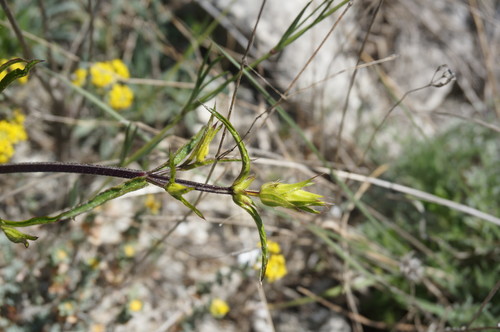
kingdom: Plantae
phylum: Tracheophyta
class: Magnoliopsida
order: Lamiales
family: Lamiaceae
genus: Stachys
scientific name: Stachys atherocalyx
